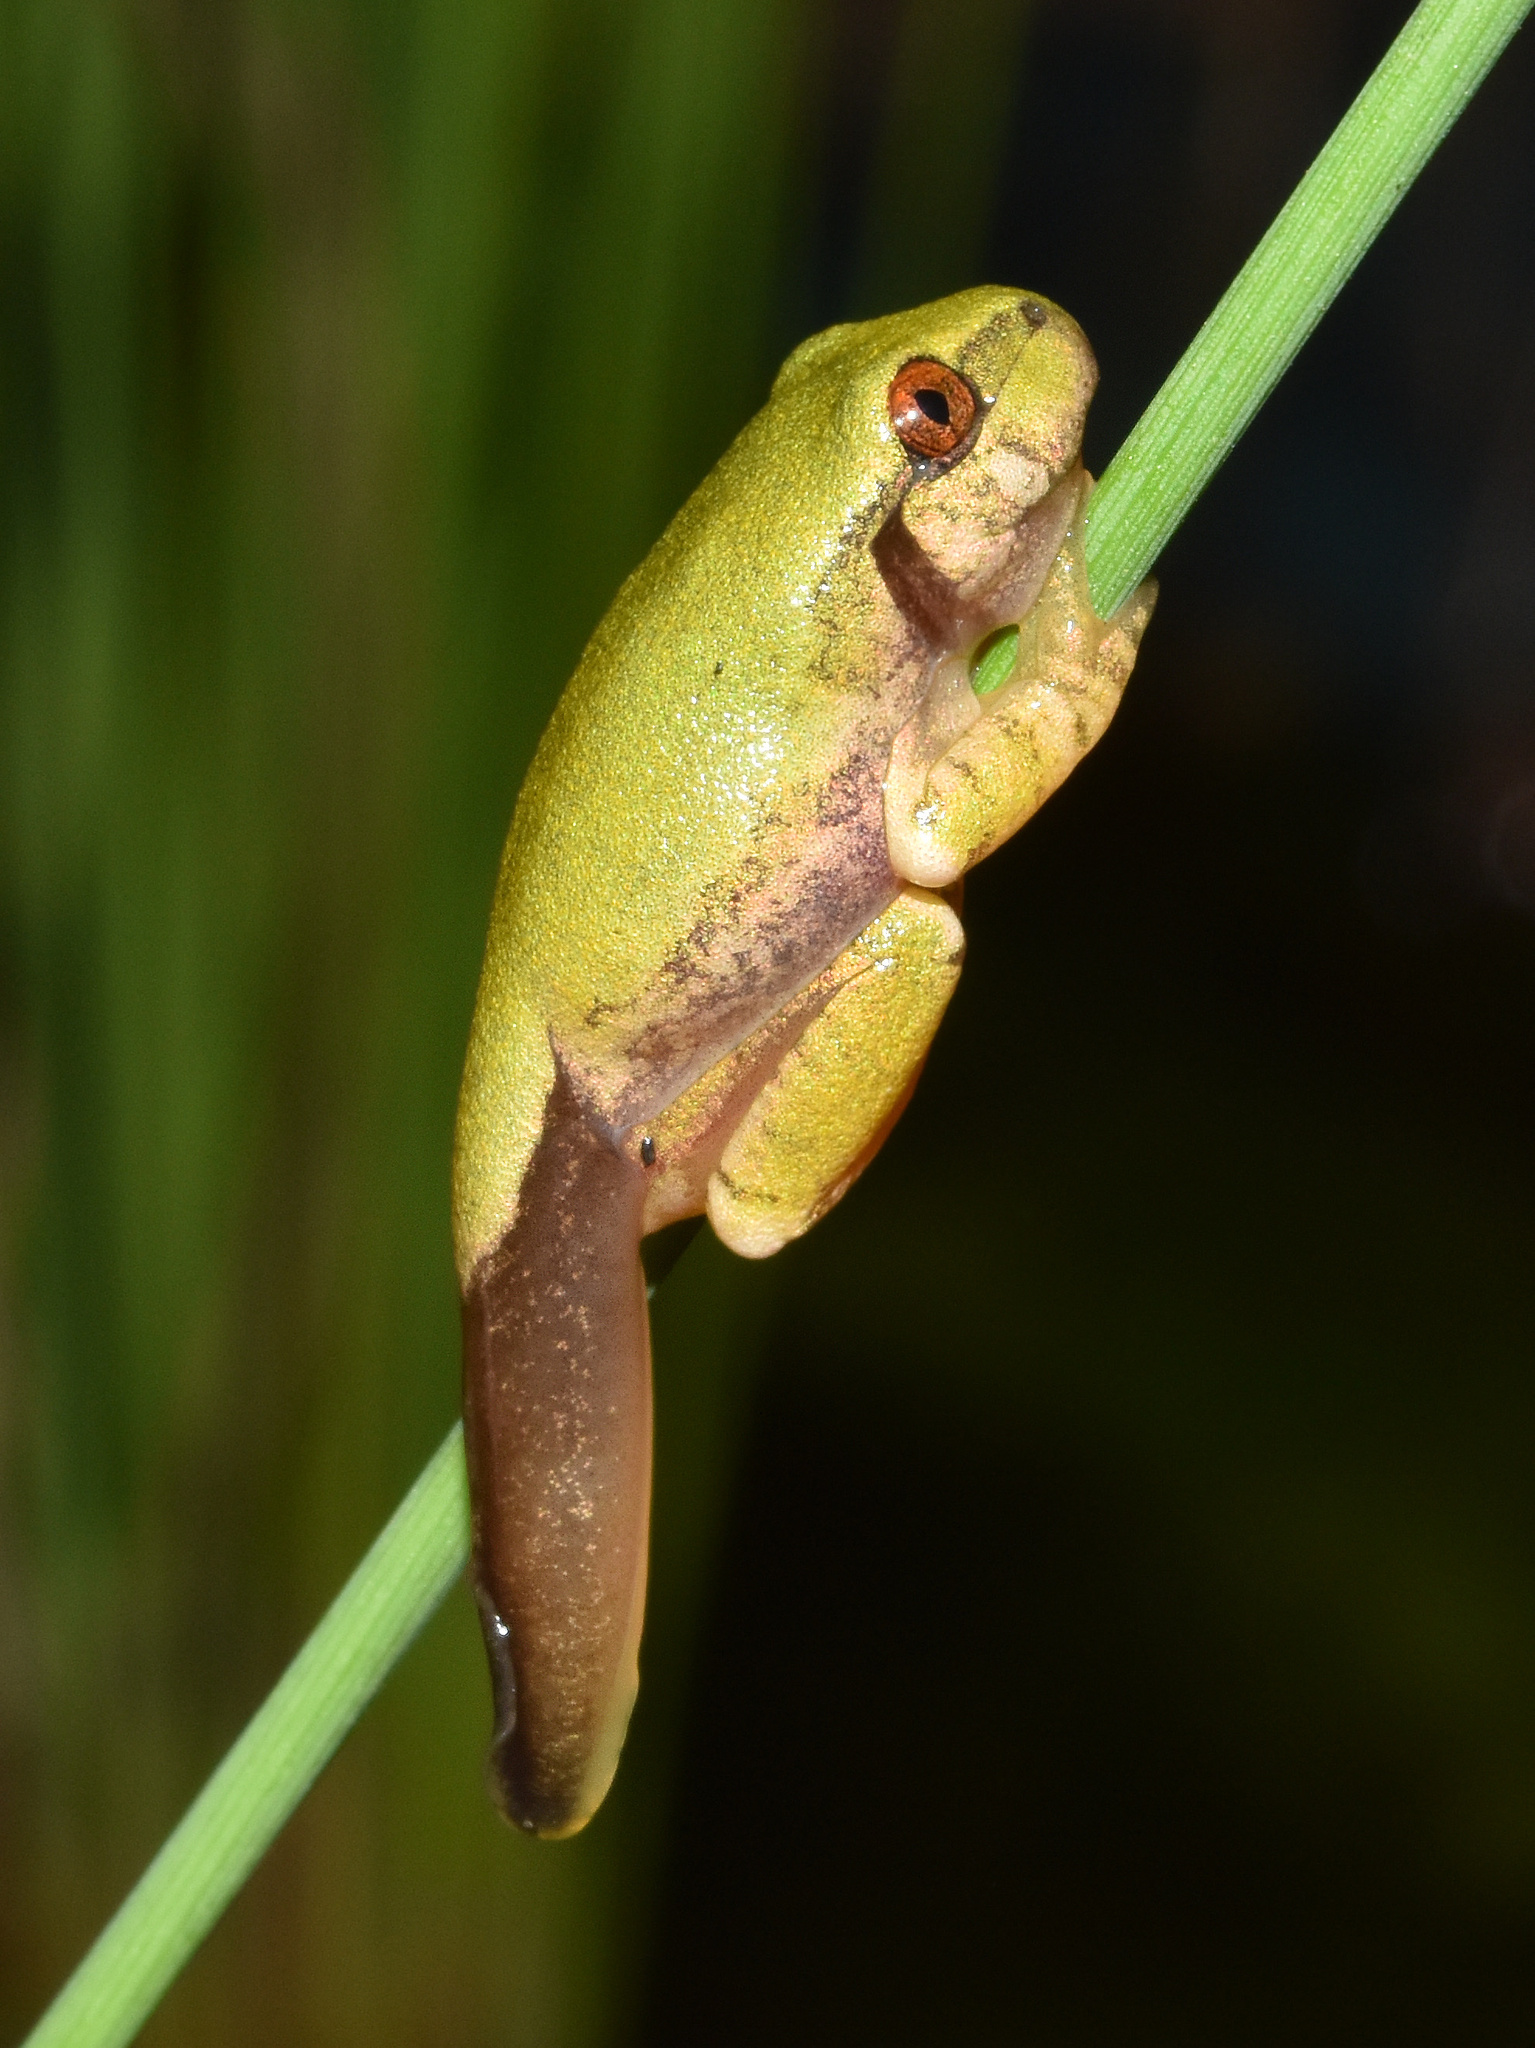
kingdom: Animalia
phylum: Chordata
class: Amphibia
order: Anura
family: Arthroleptidae
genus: Leptopelis
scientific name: Leptopelis natalensis
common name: Natal tree frog
